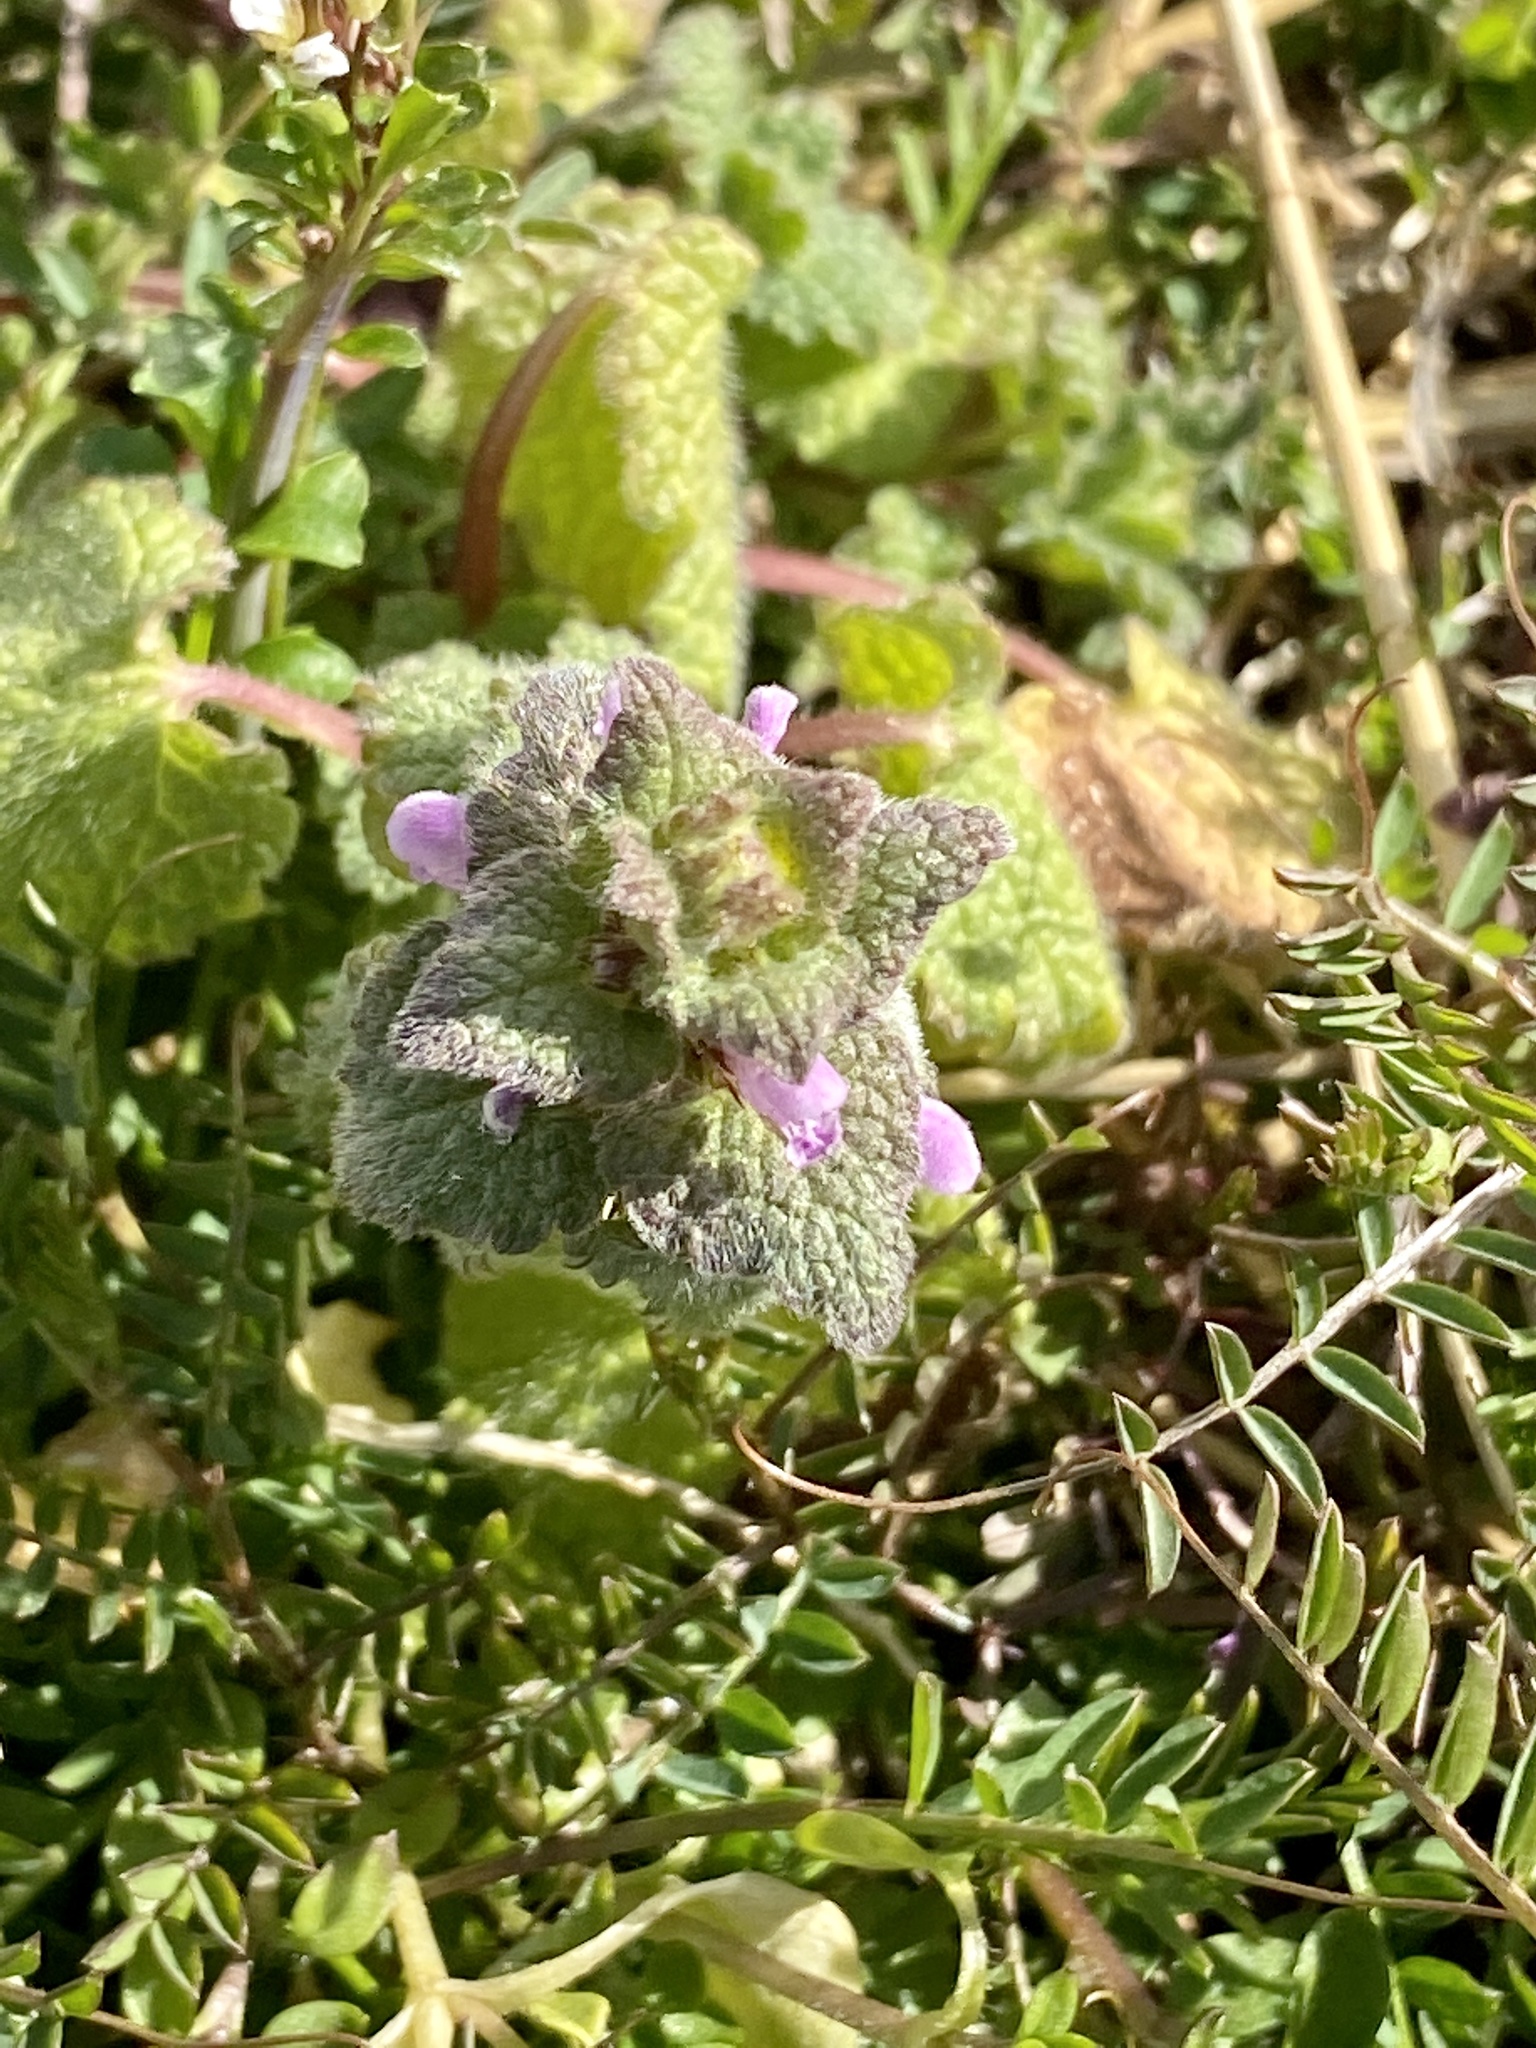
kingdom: Plantae
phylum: Tracheophyta
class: Magnoliopsida
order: Lamiales
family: Lamiaceae
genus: Lamium
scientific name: Lamium purpureum
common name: Red dead-nettle
